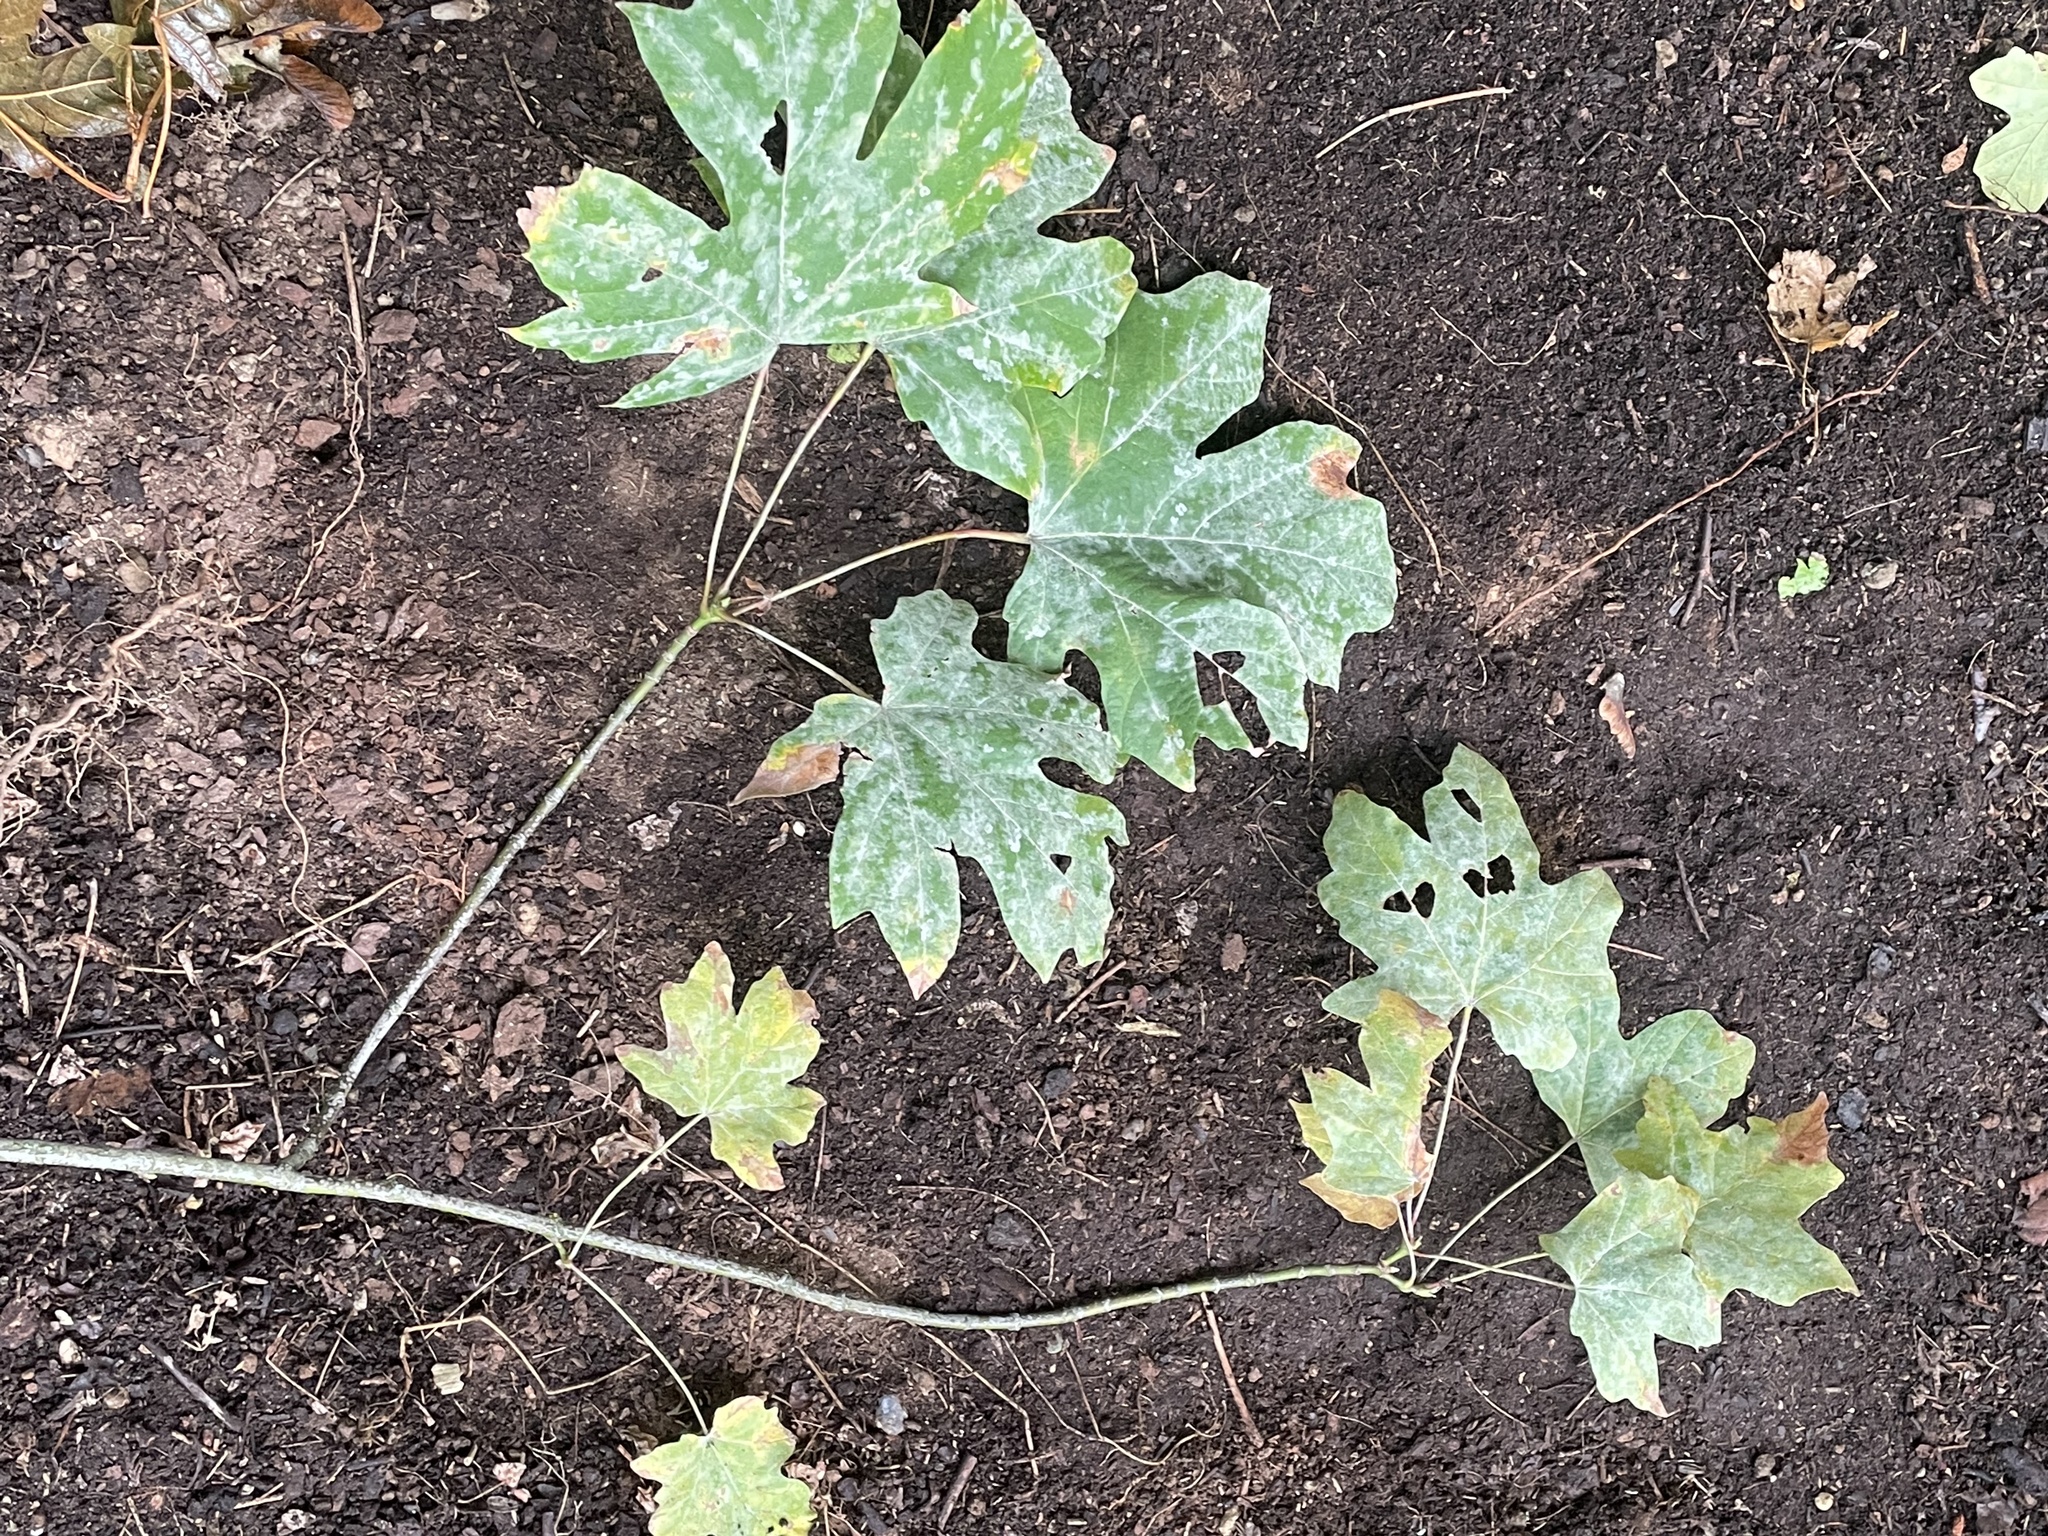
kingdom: Fungi
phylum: Ascomycota
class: Leotiomycetes
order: Helotiales
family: Erysiphaceae
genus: Sawadaea
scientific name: Sawadaea bicornis
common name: Maple mildew
